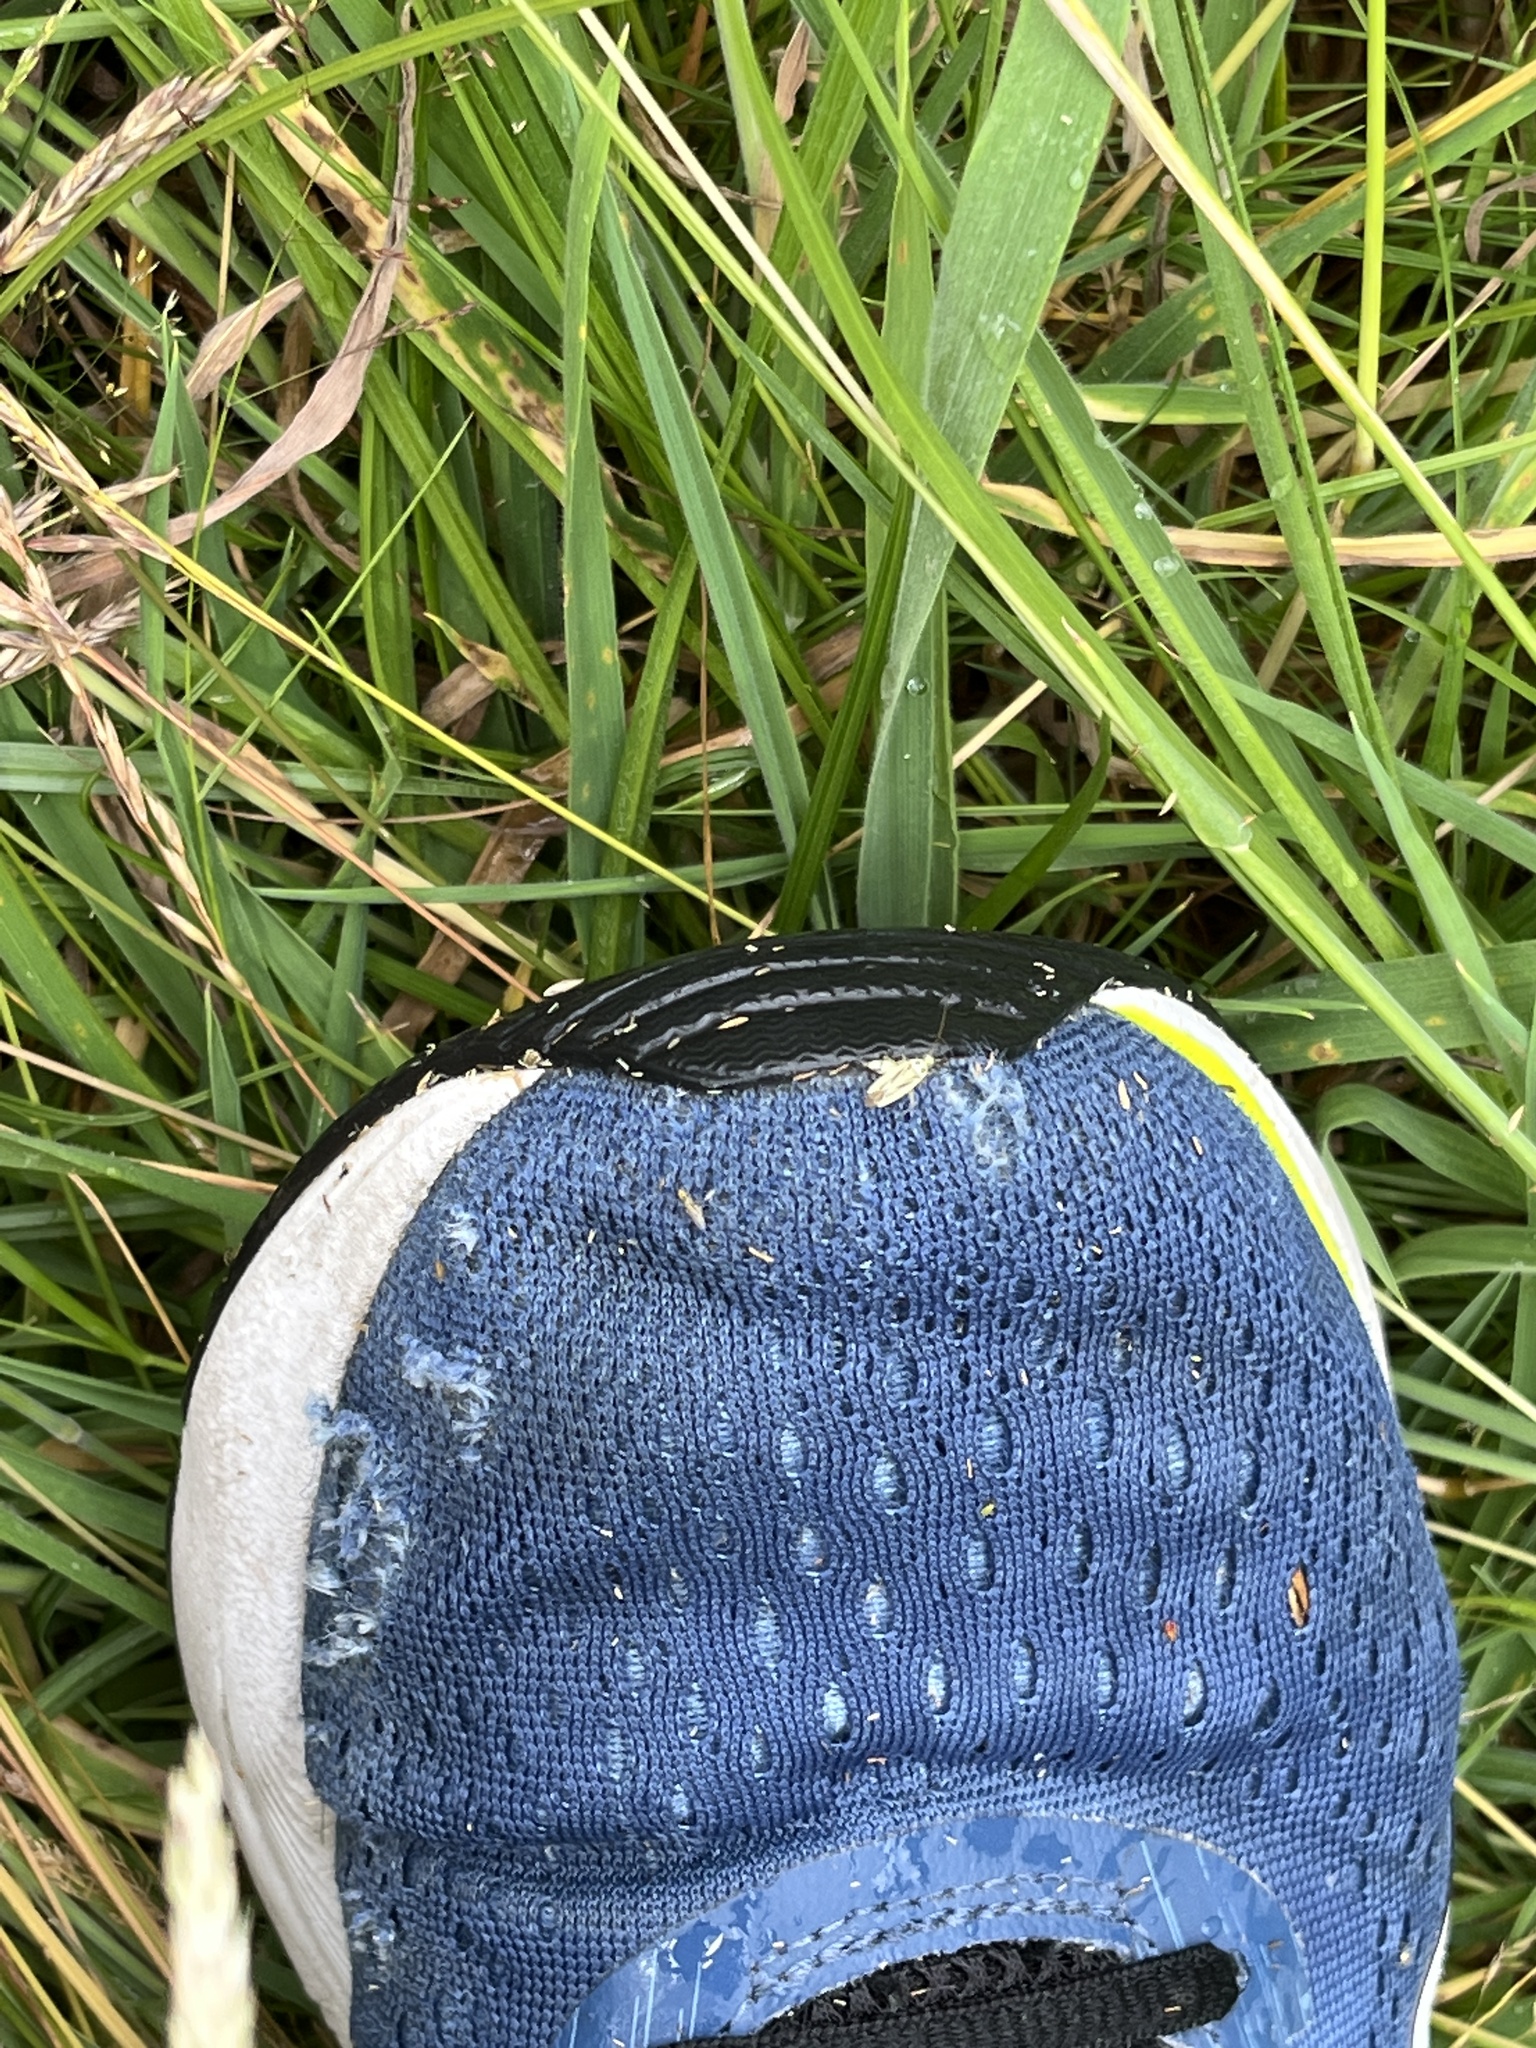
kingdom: Animalia
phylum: Arthropoda
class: Insecta
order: Hemiptera
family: Miridae
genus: Stenotus
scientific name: Stenotus binotatus
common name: Plant bug
